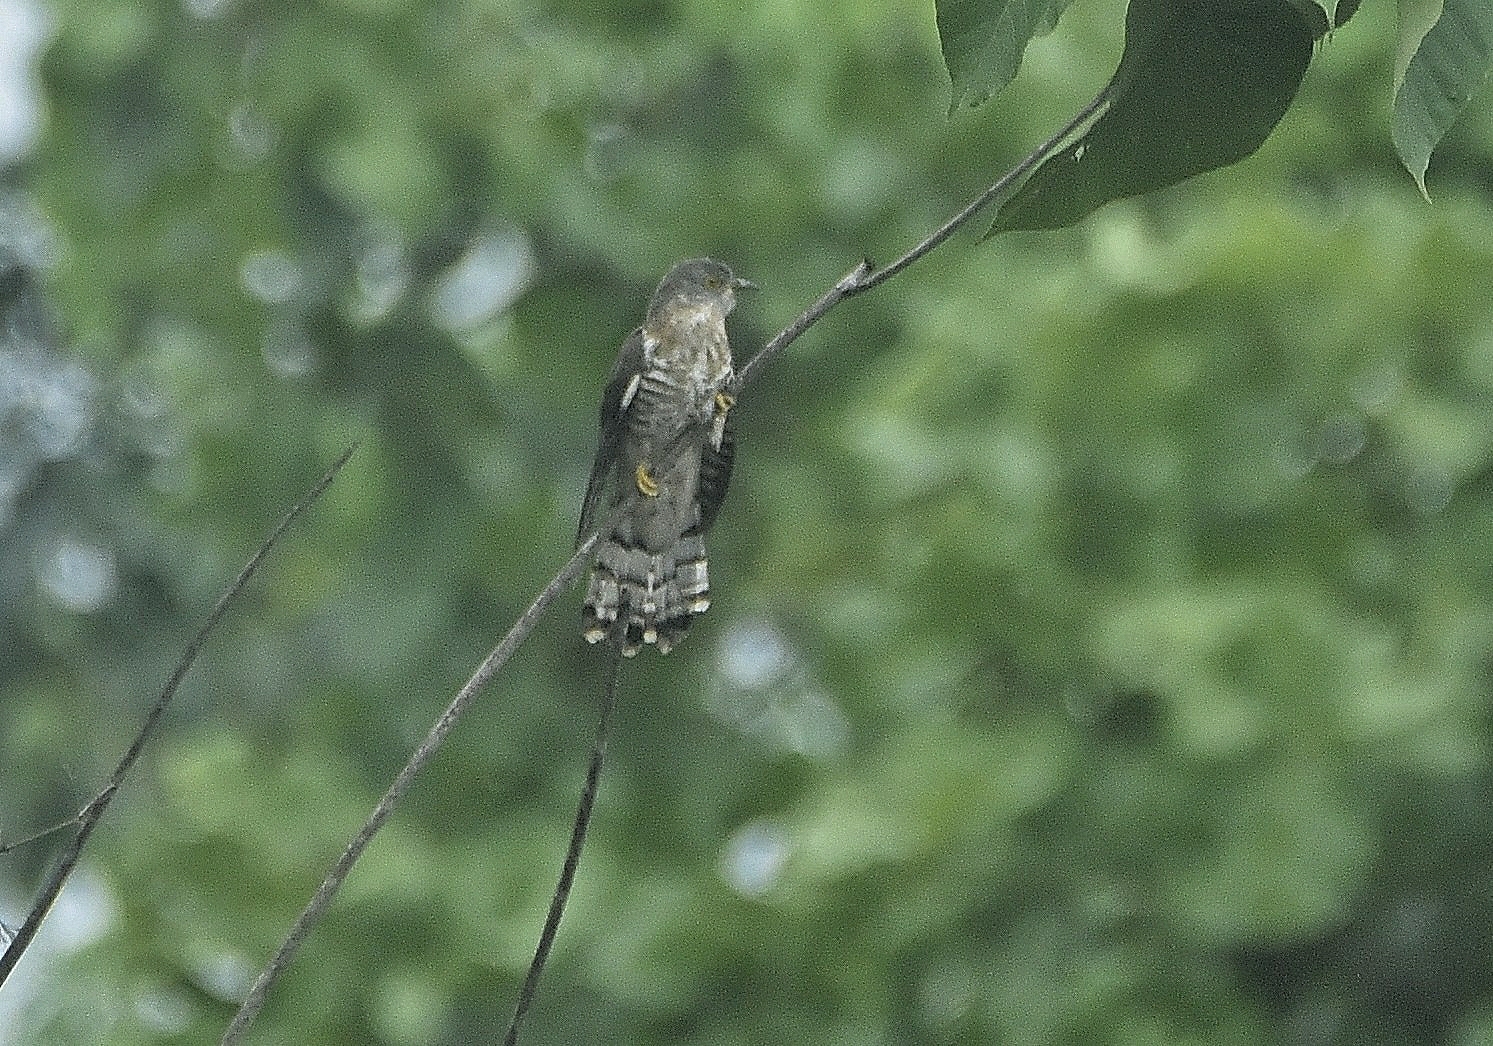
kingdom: Animalia
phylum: Chordata
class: Aves
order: Cuculiformes
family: Cuculidae
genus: Cuculus
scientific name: Cuculus varius
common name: Common hawk cuckoo
